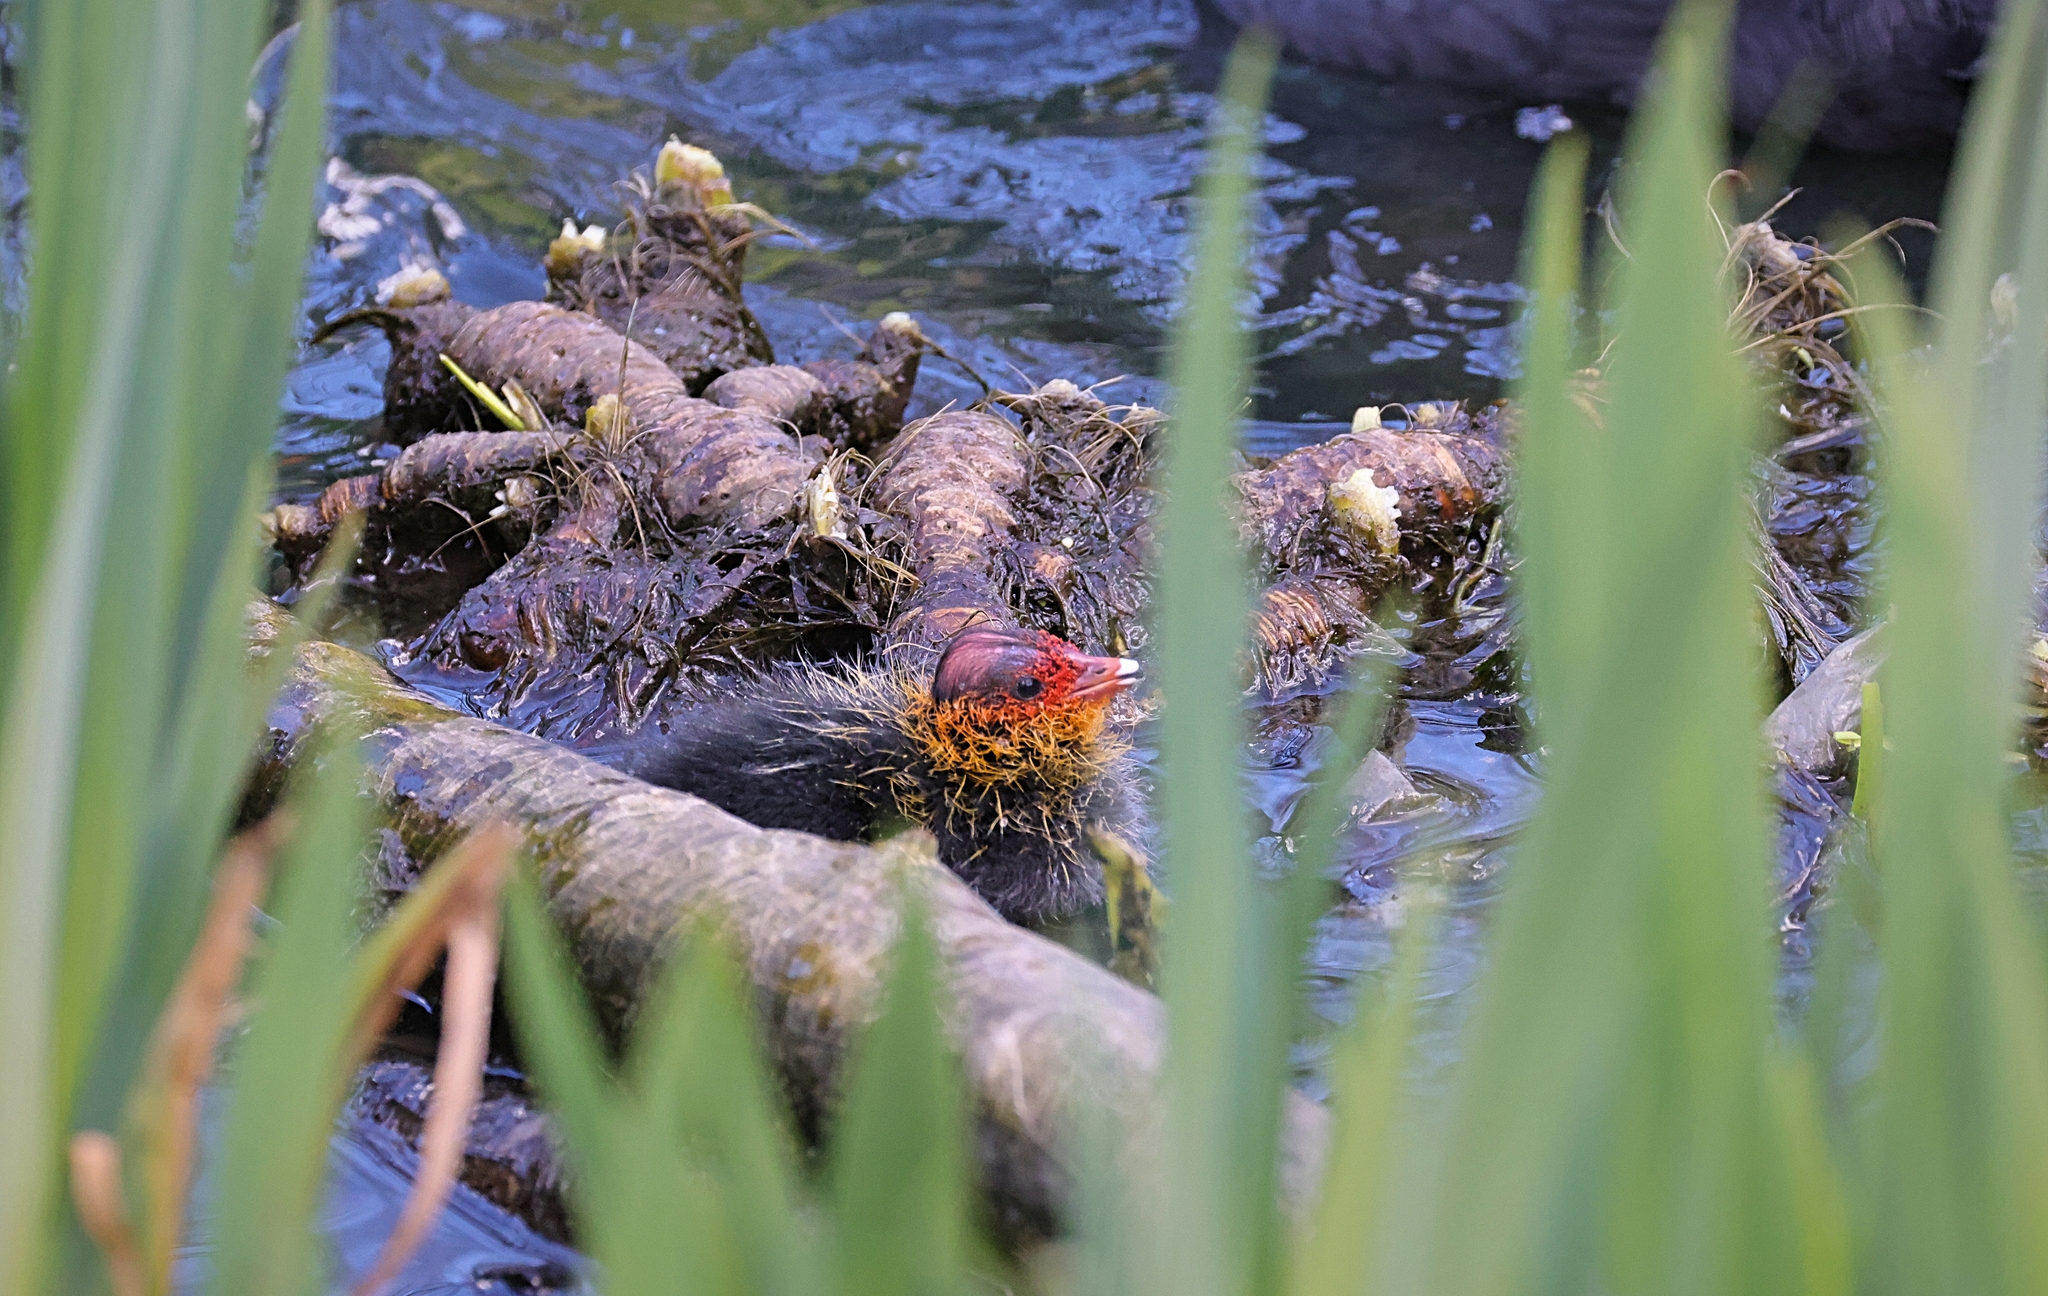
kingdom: Animalia
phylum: Chordata
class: Aves
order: Gruiformes
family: Rallidae
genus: Fulica
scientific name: Fulica atra
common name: Eurasian coot
